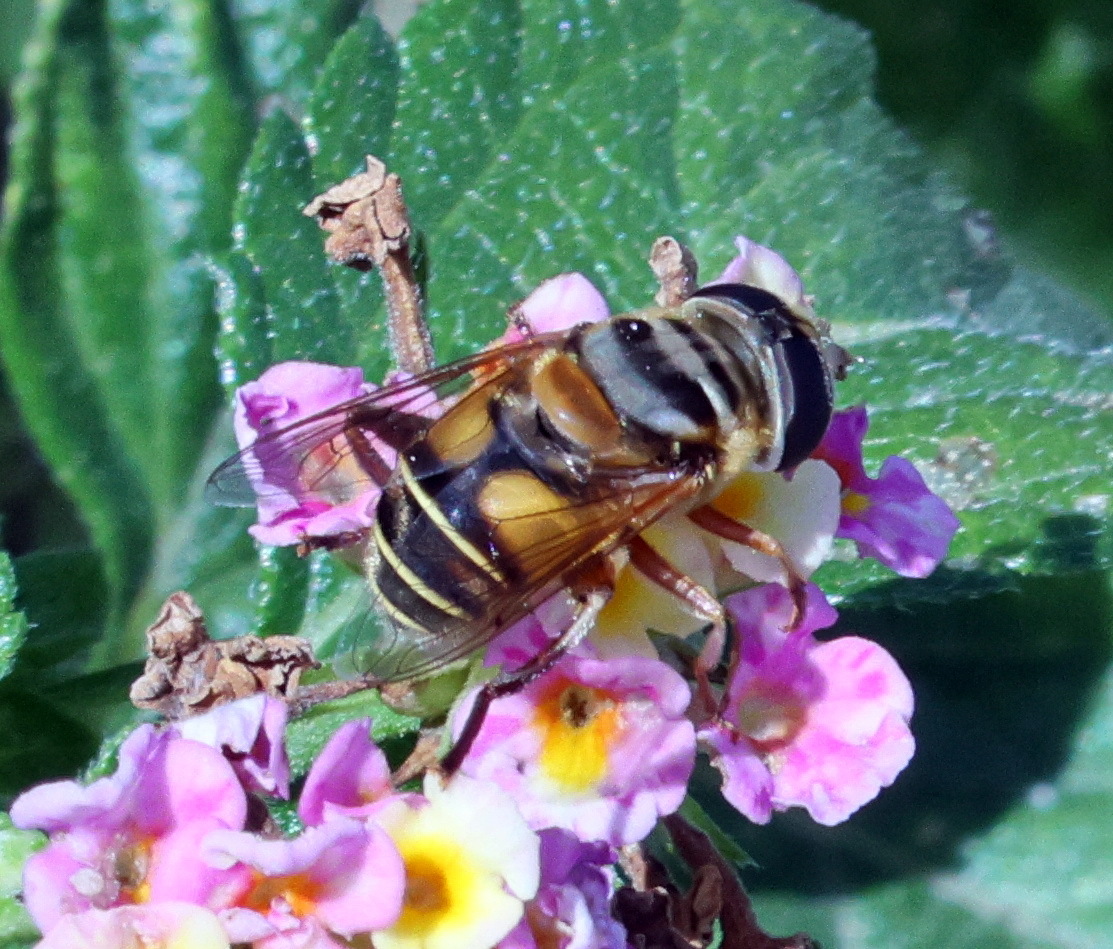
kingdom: Animalia
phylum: Arthropoda
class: Insecta
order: Diptera
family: Syrphidae
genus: Palpada
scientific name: Palpada vinetorum
